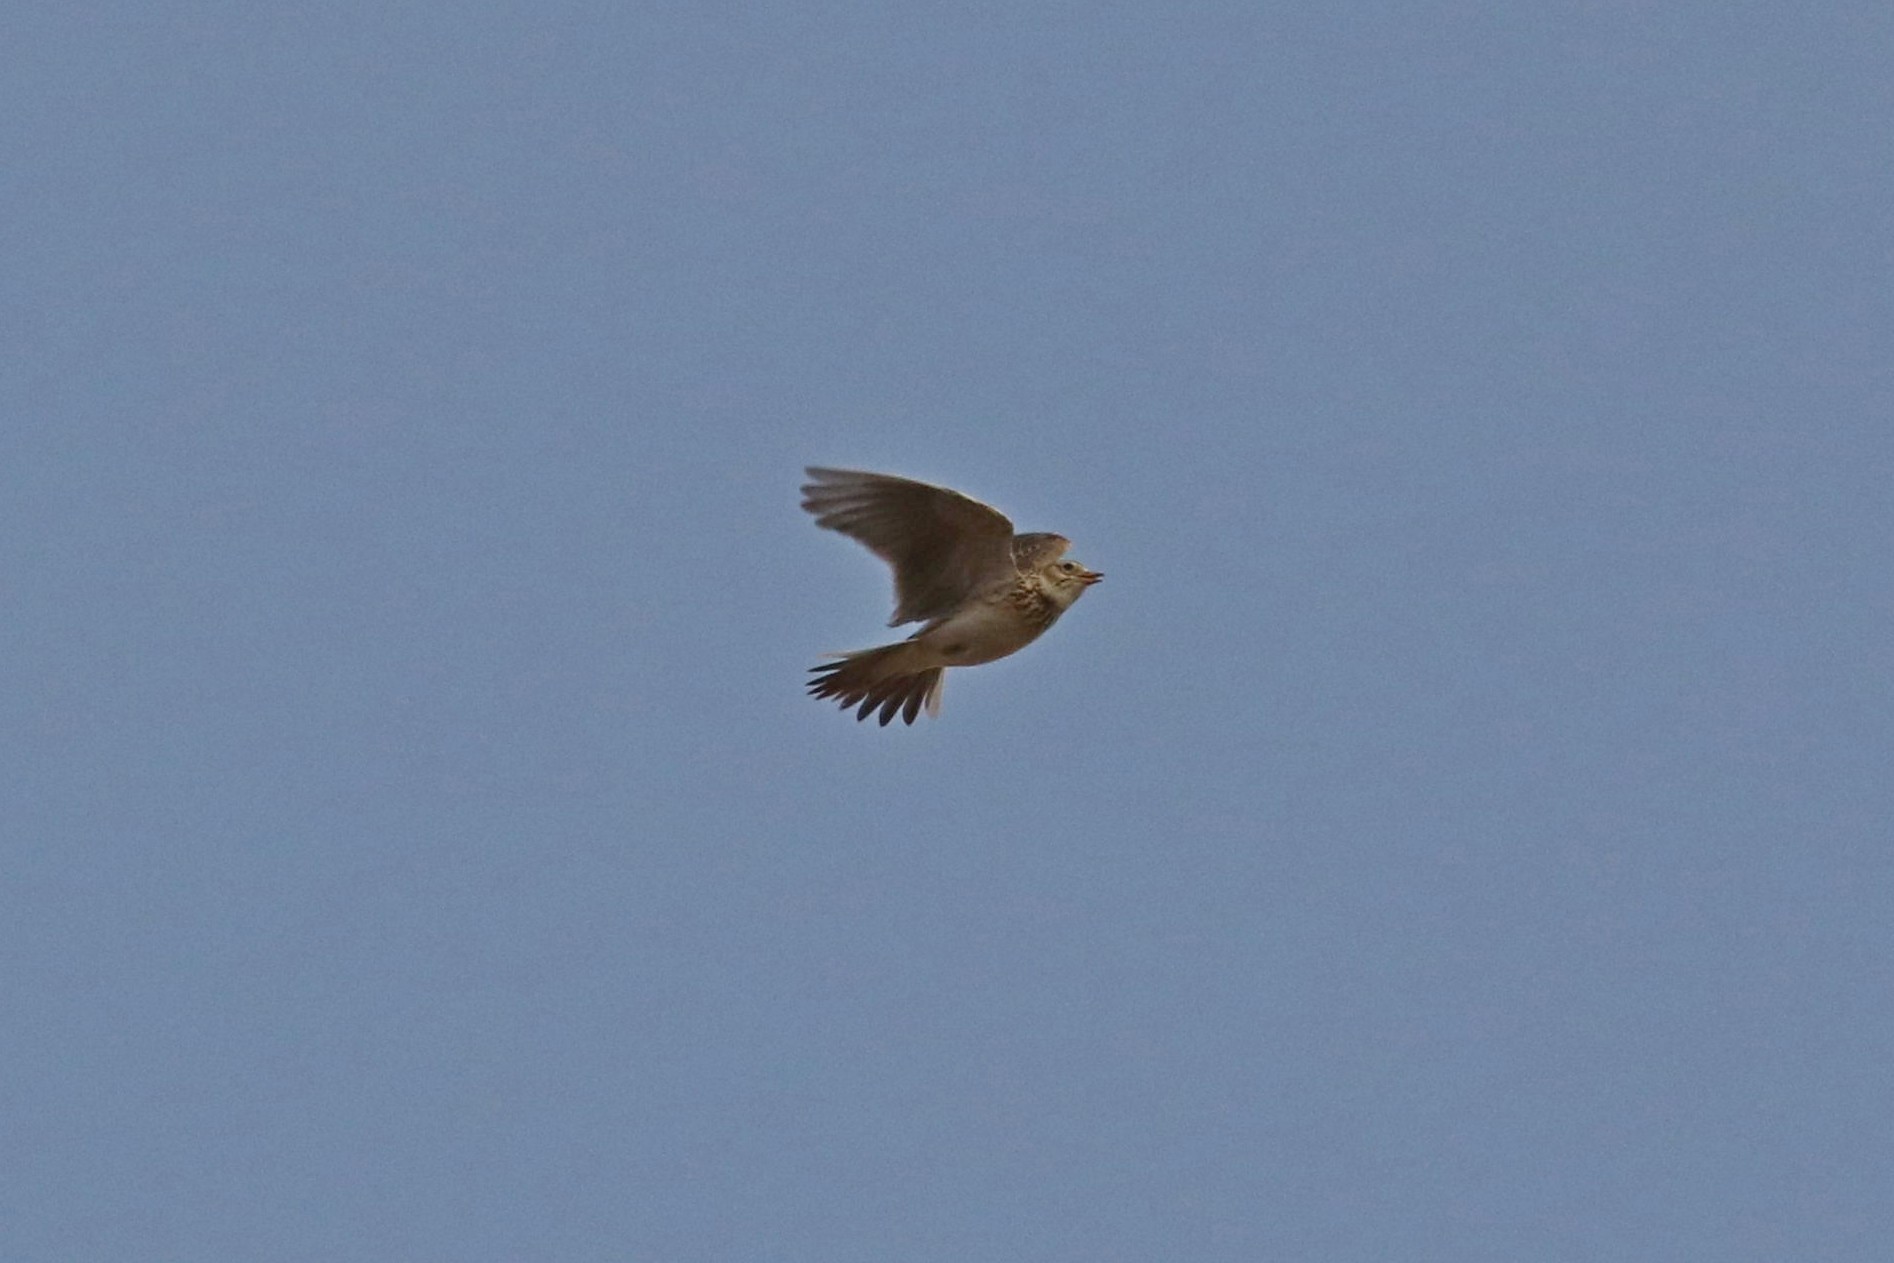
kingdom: Animalia
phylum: Chordata
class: Aves
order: Passeriformes
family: Alaudidae
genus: Alauda
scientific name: Alauda arvensis
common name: Eurasian skylark
